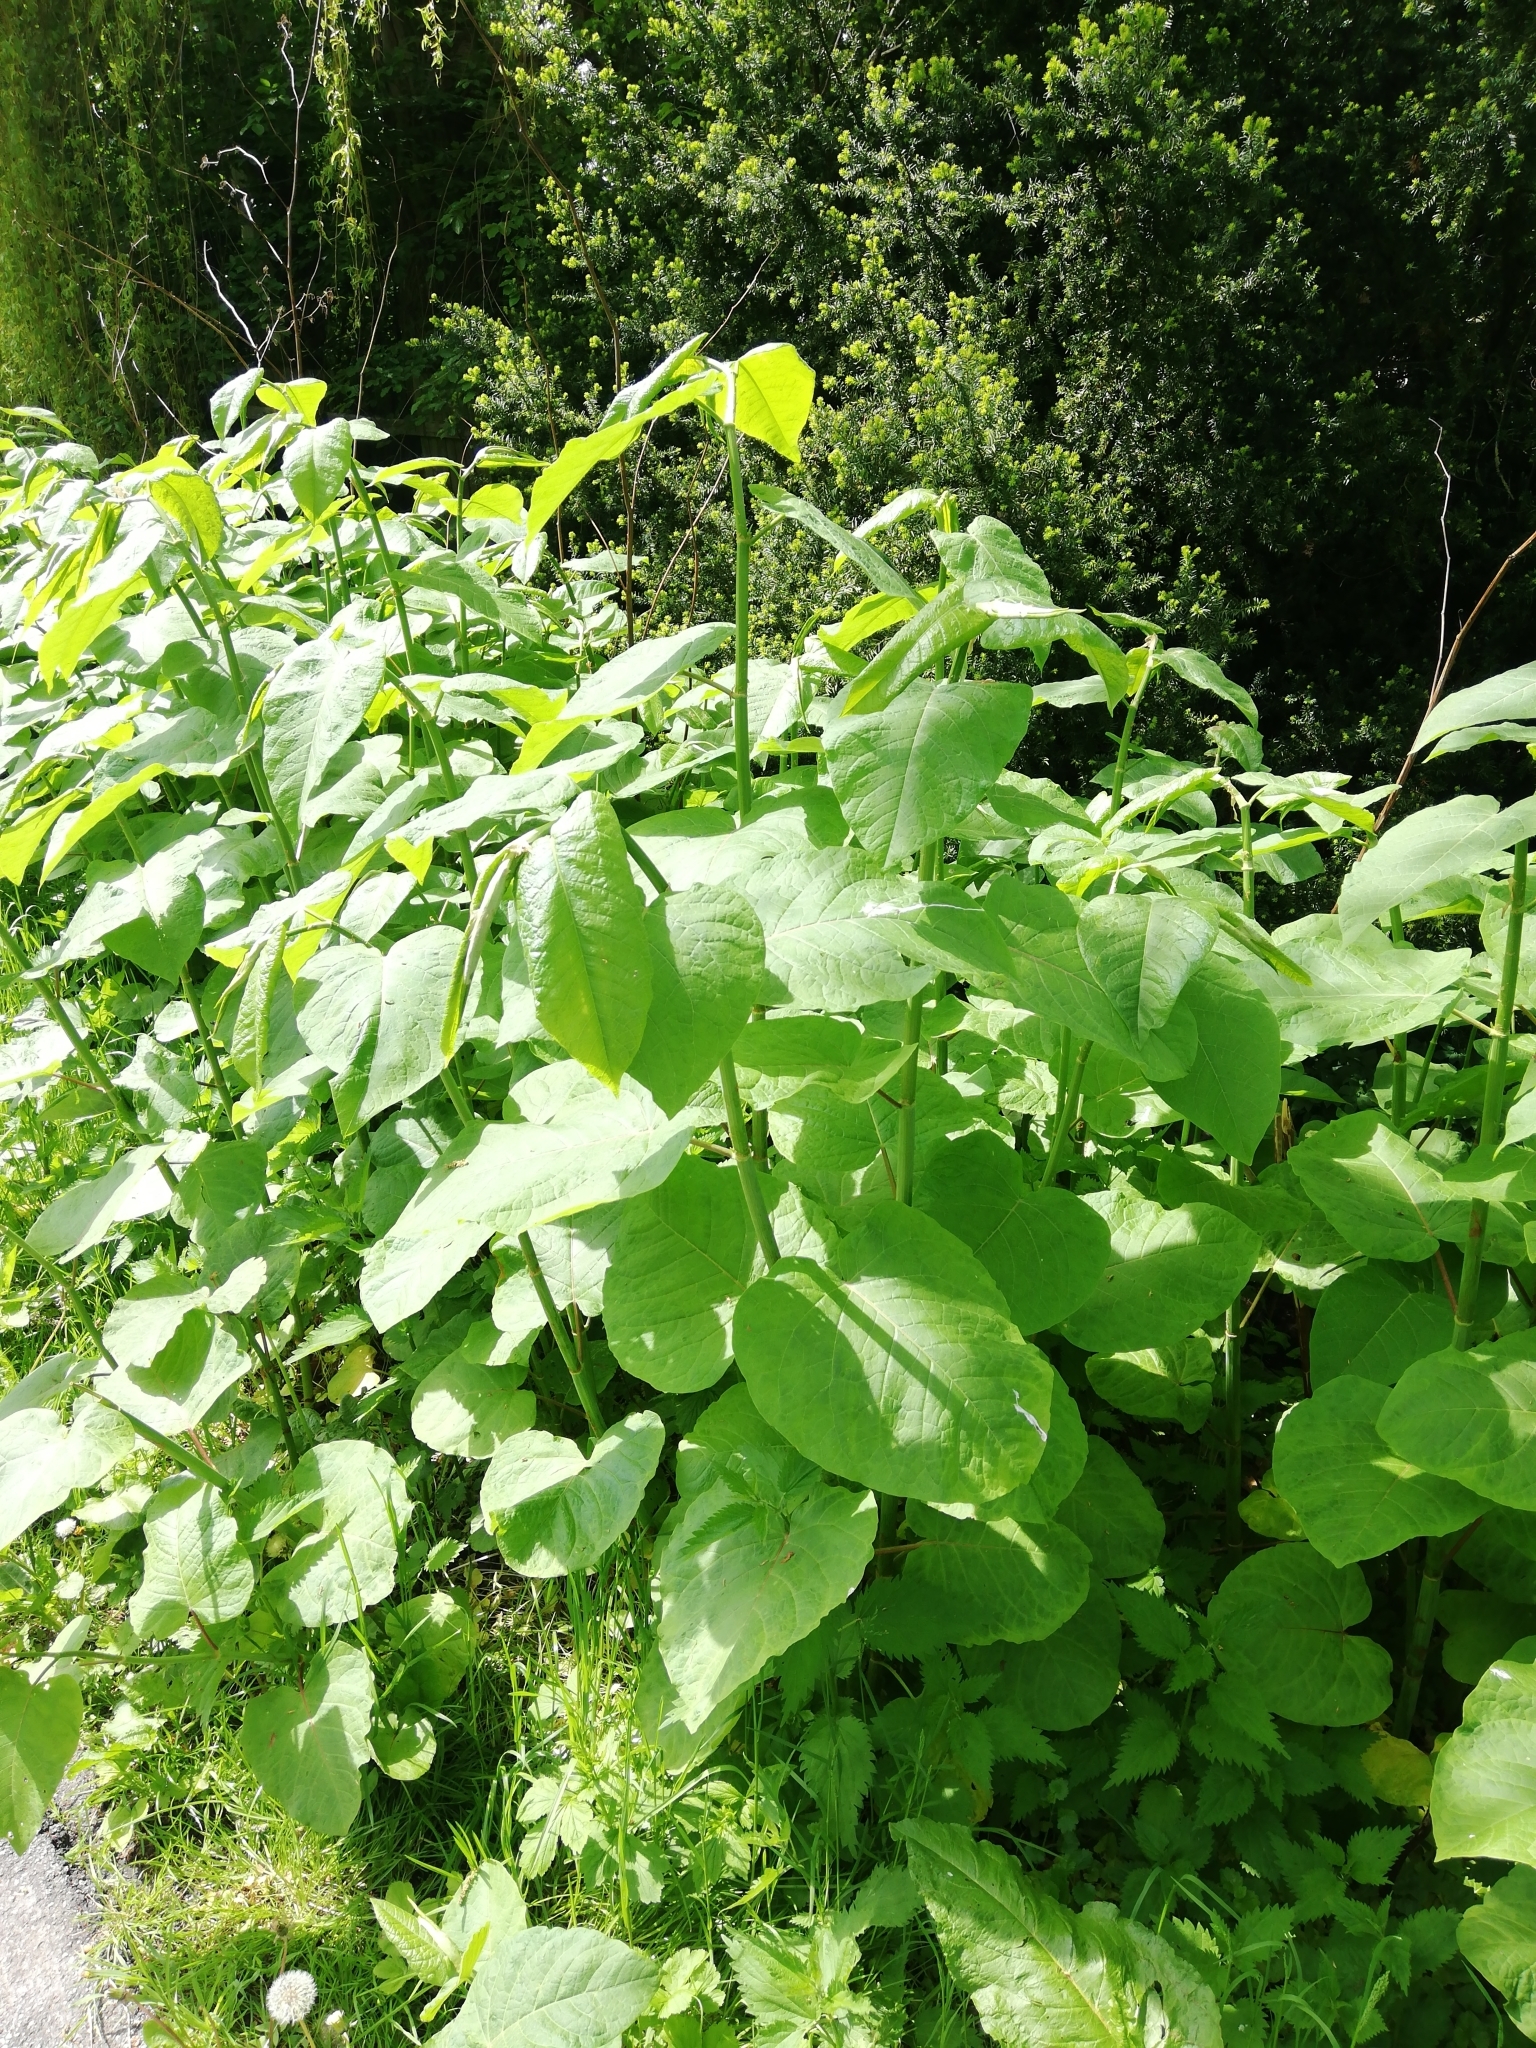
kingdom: Plantae
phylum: Tracheophyta
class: Magnoliopsida
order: Caryophyllales
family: Polygonaceae
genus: Reynoutria
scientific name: Reynoutria sachalinensis
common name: Giant knotweed
